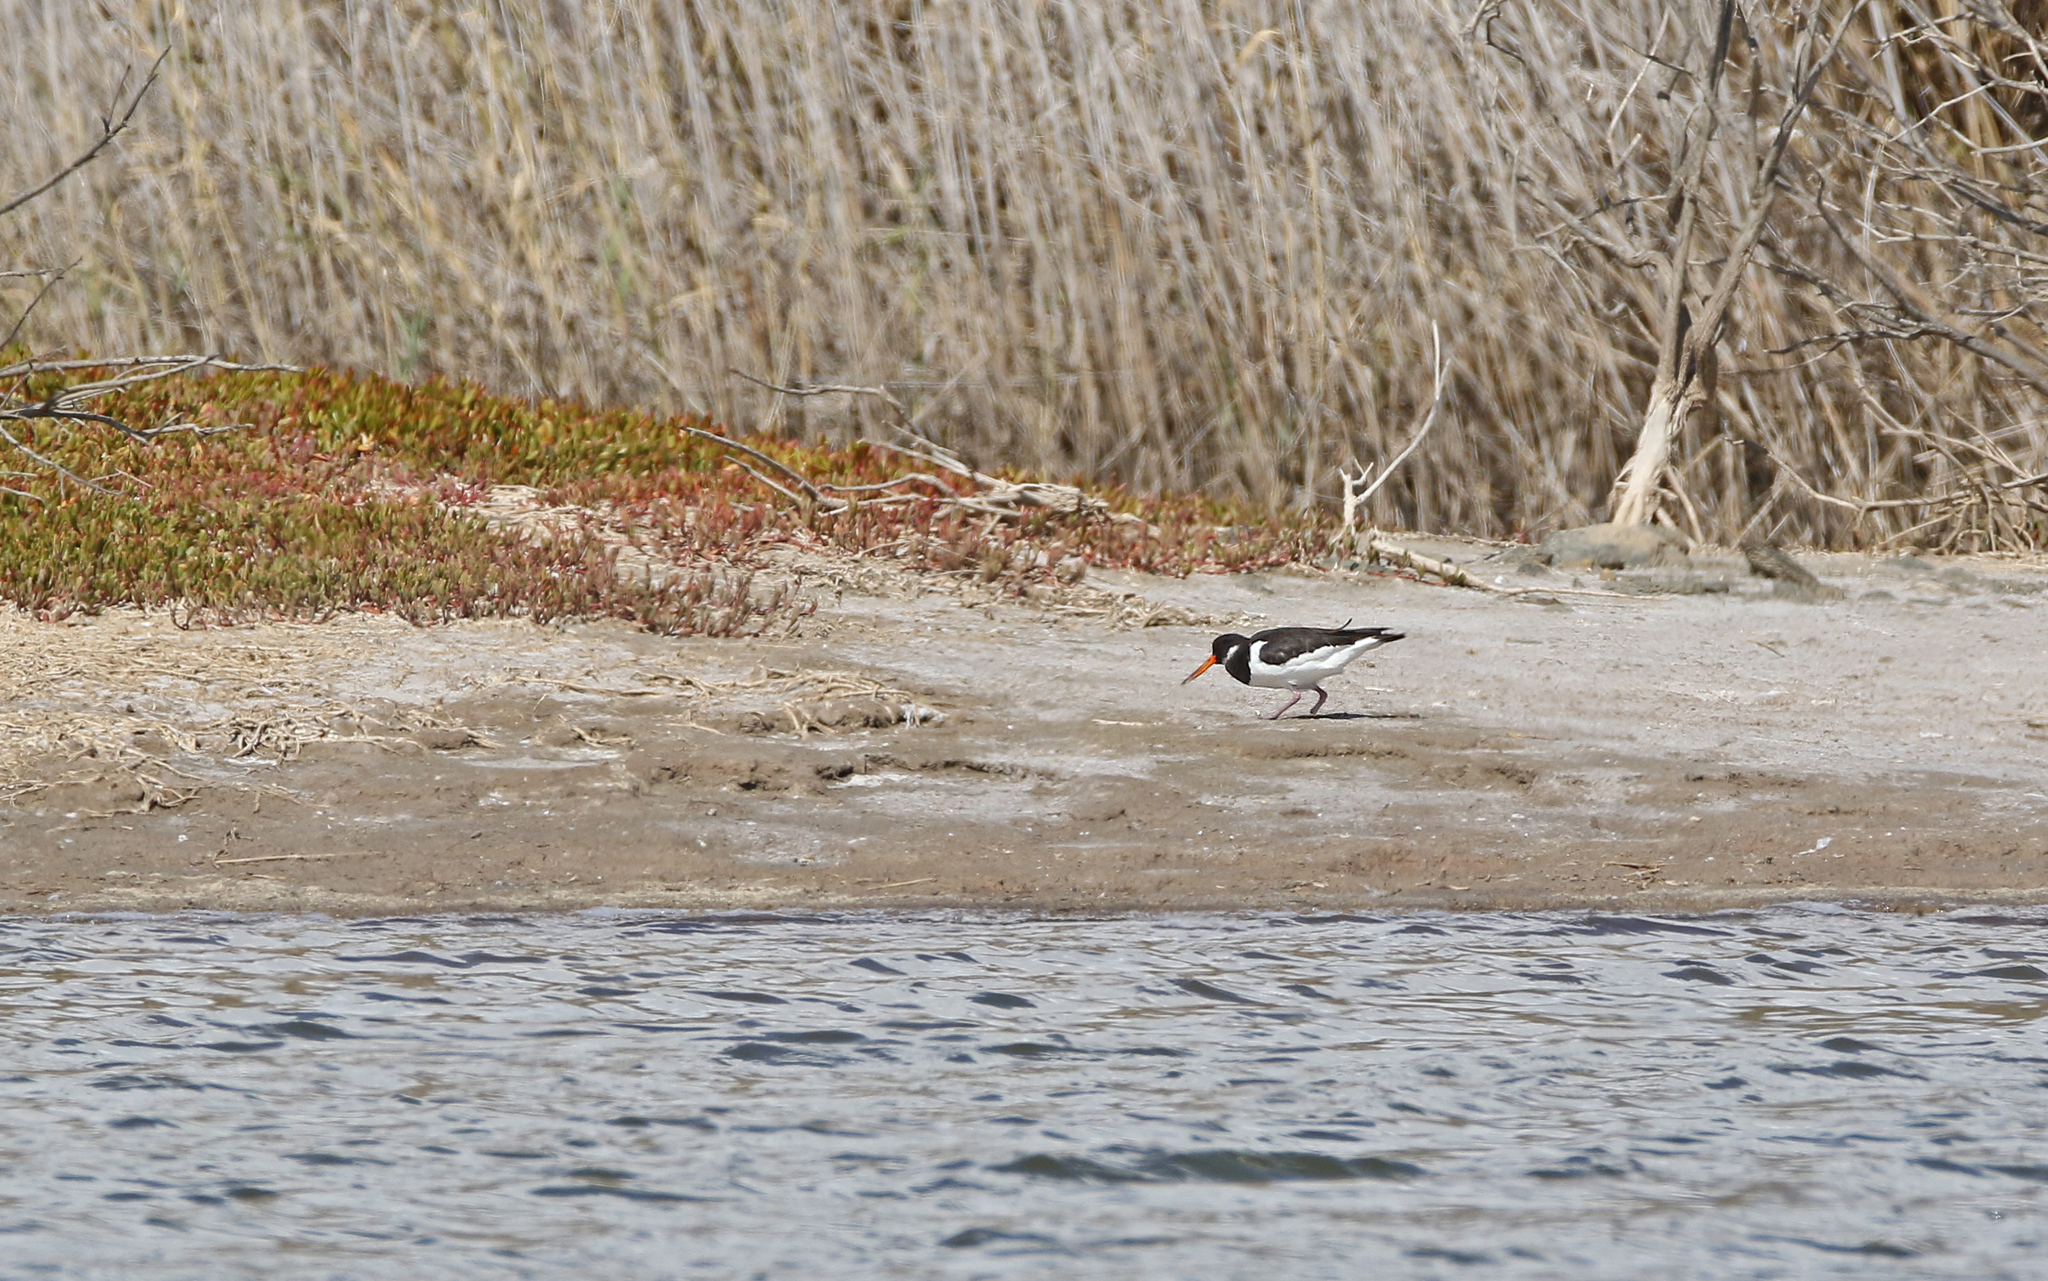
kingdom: Animalia
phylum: Chordata
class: Aves
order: Charadriiformes
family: Haematopodidae
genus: Haematopus
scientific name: Haematopus ostralegus
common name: Eurasian oystercatcher
